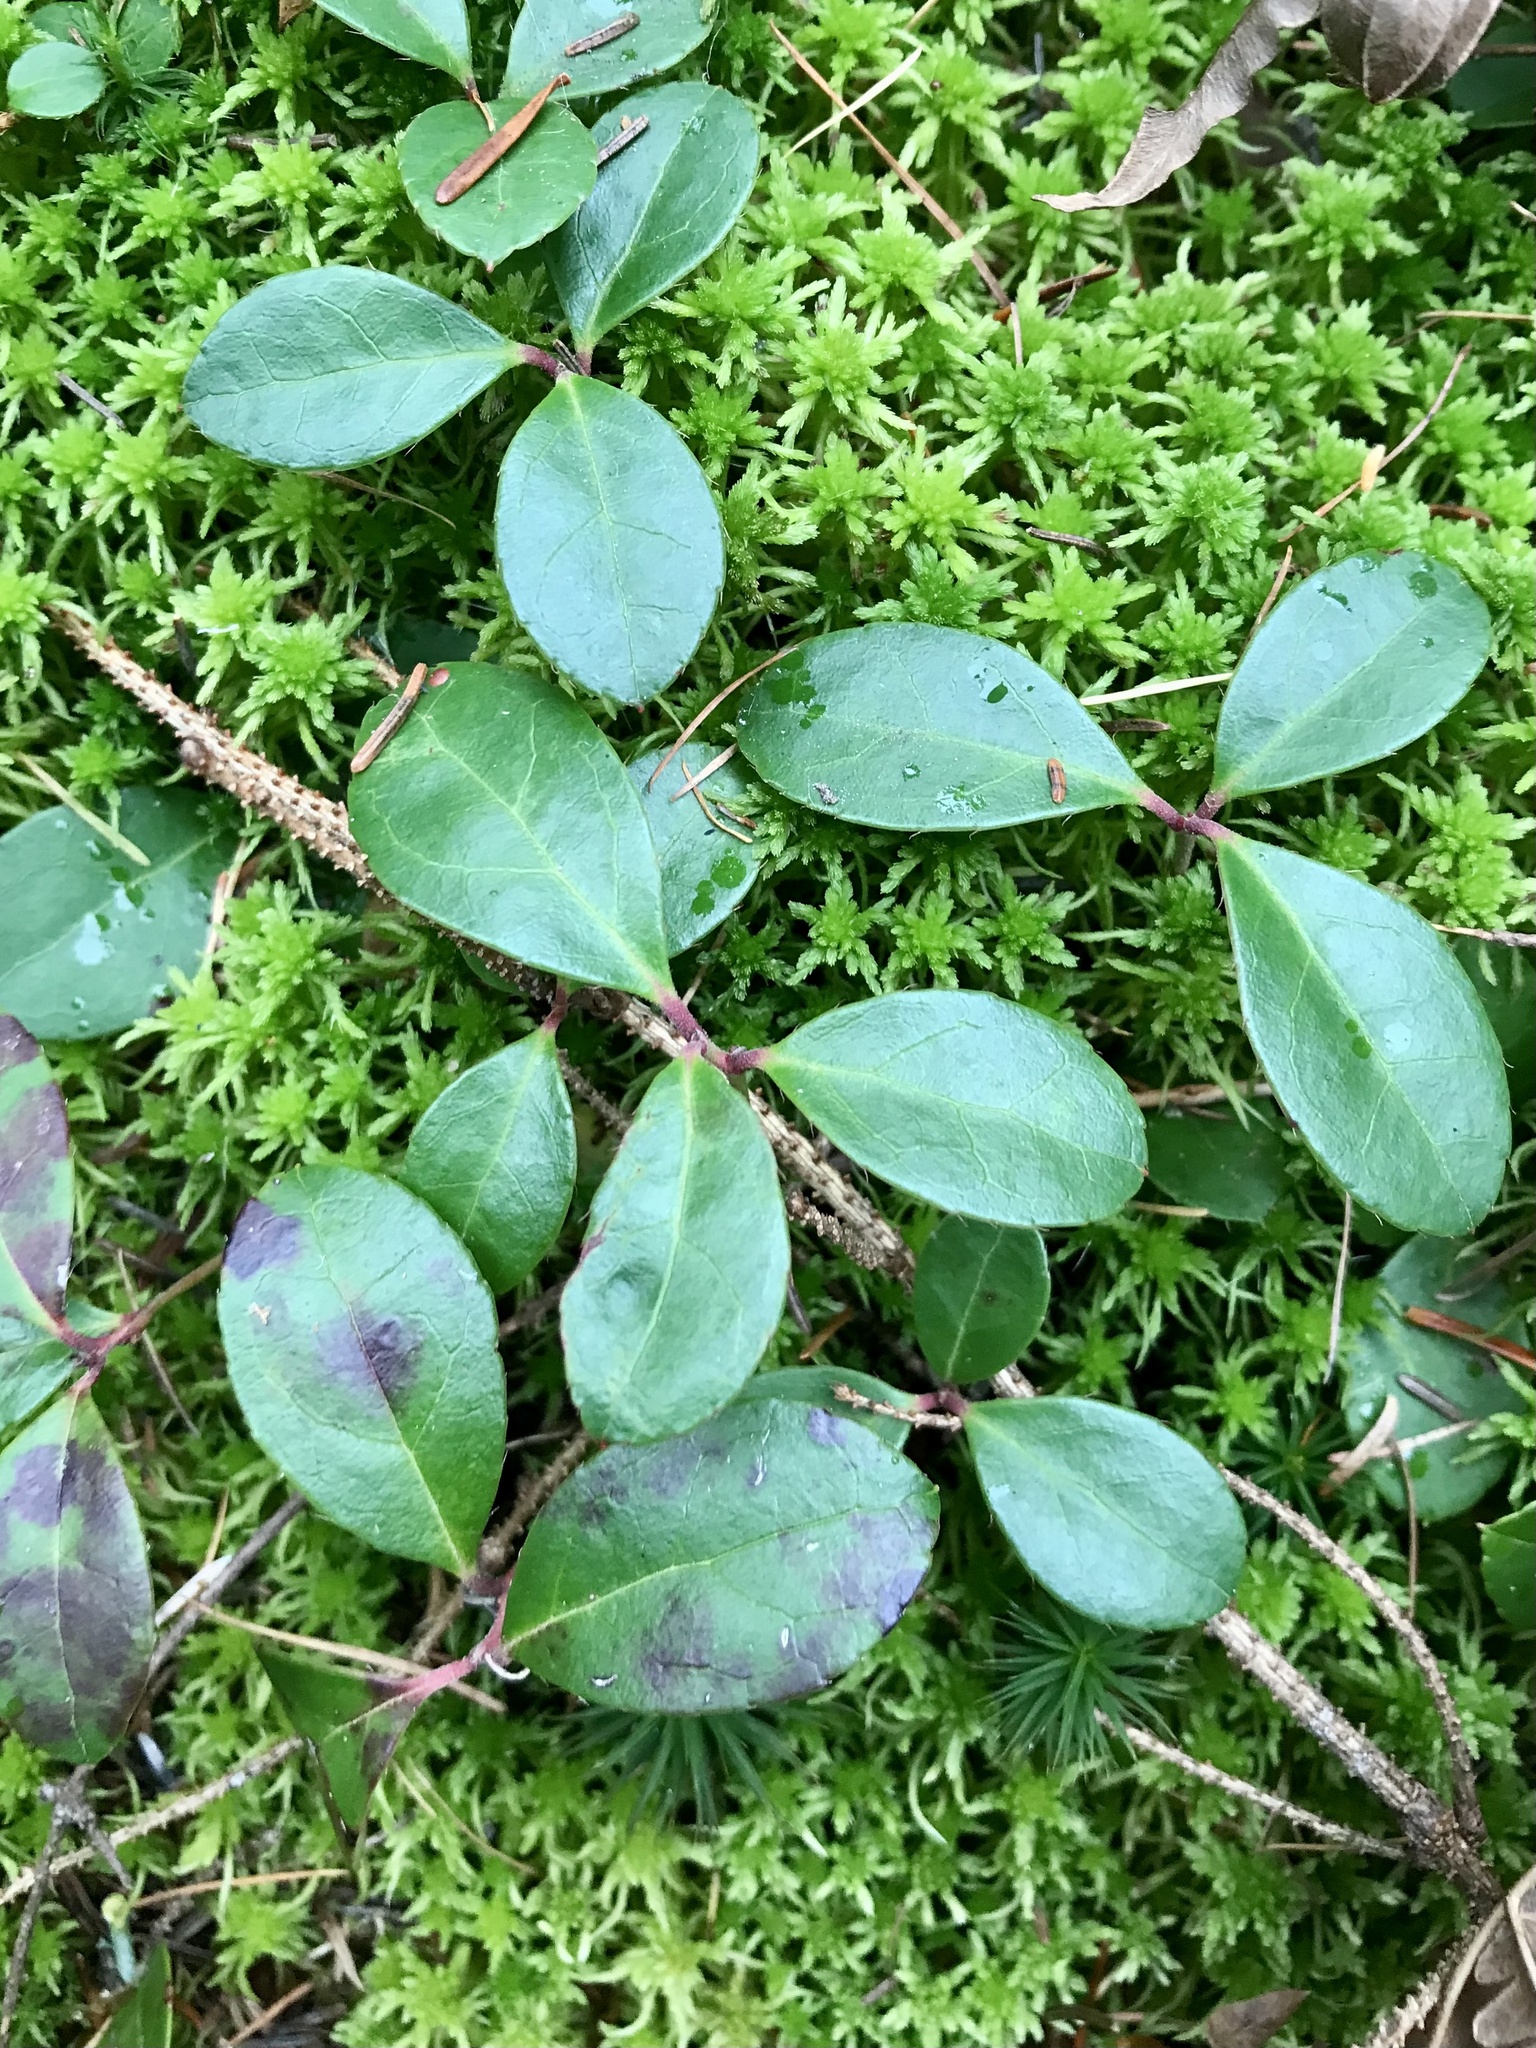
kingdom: Plantae
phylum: Tracheophyta
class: Magnoliopsida
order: Ericales
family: Ericaceae
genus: Gaultheria
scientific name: Gaultheria procumbens
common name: Checkerberry
